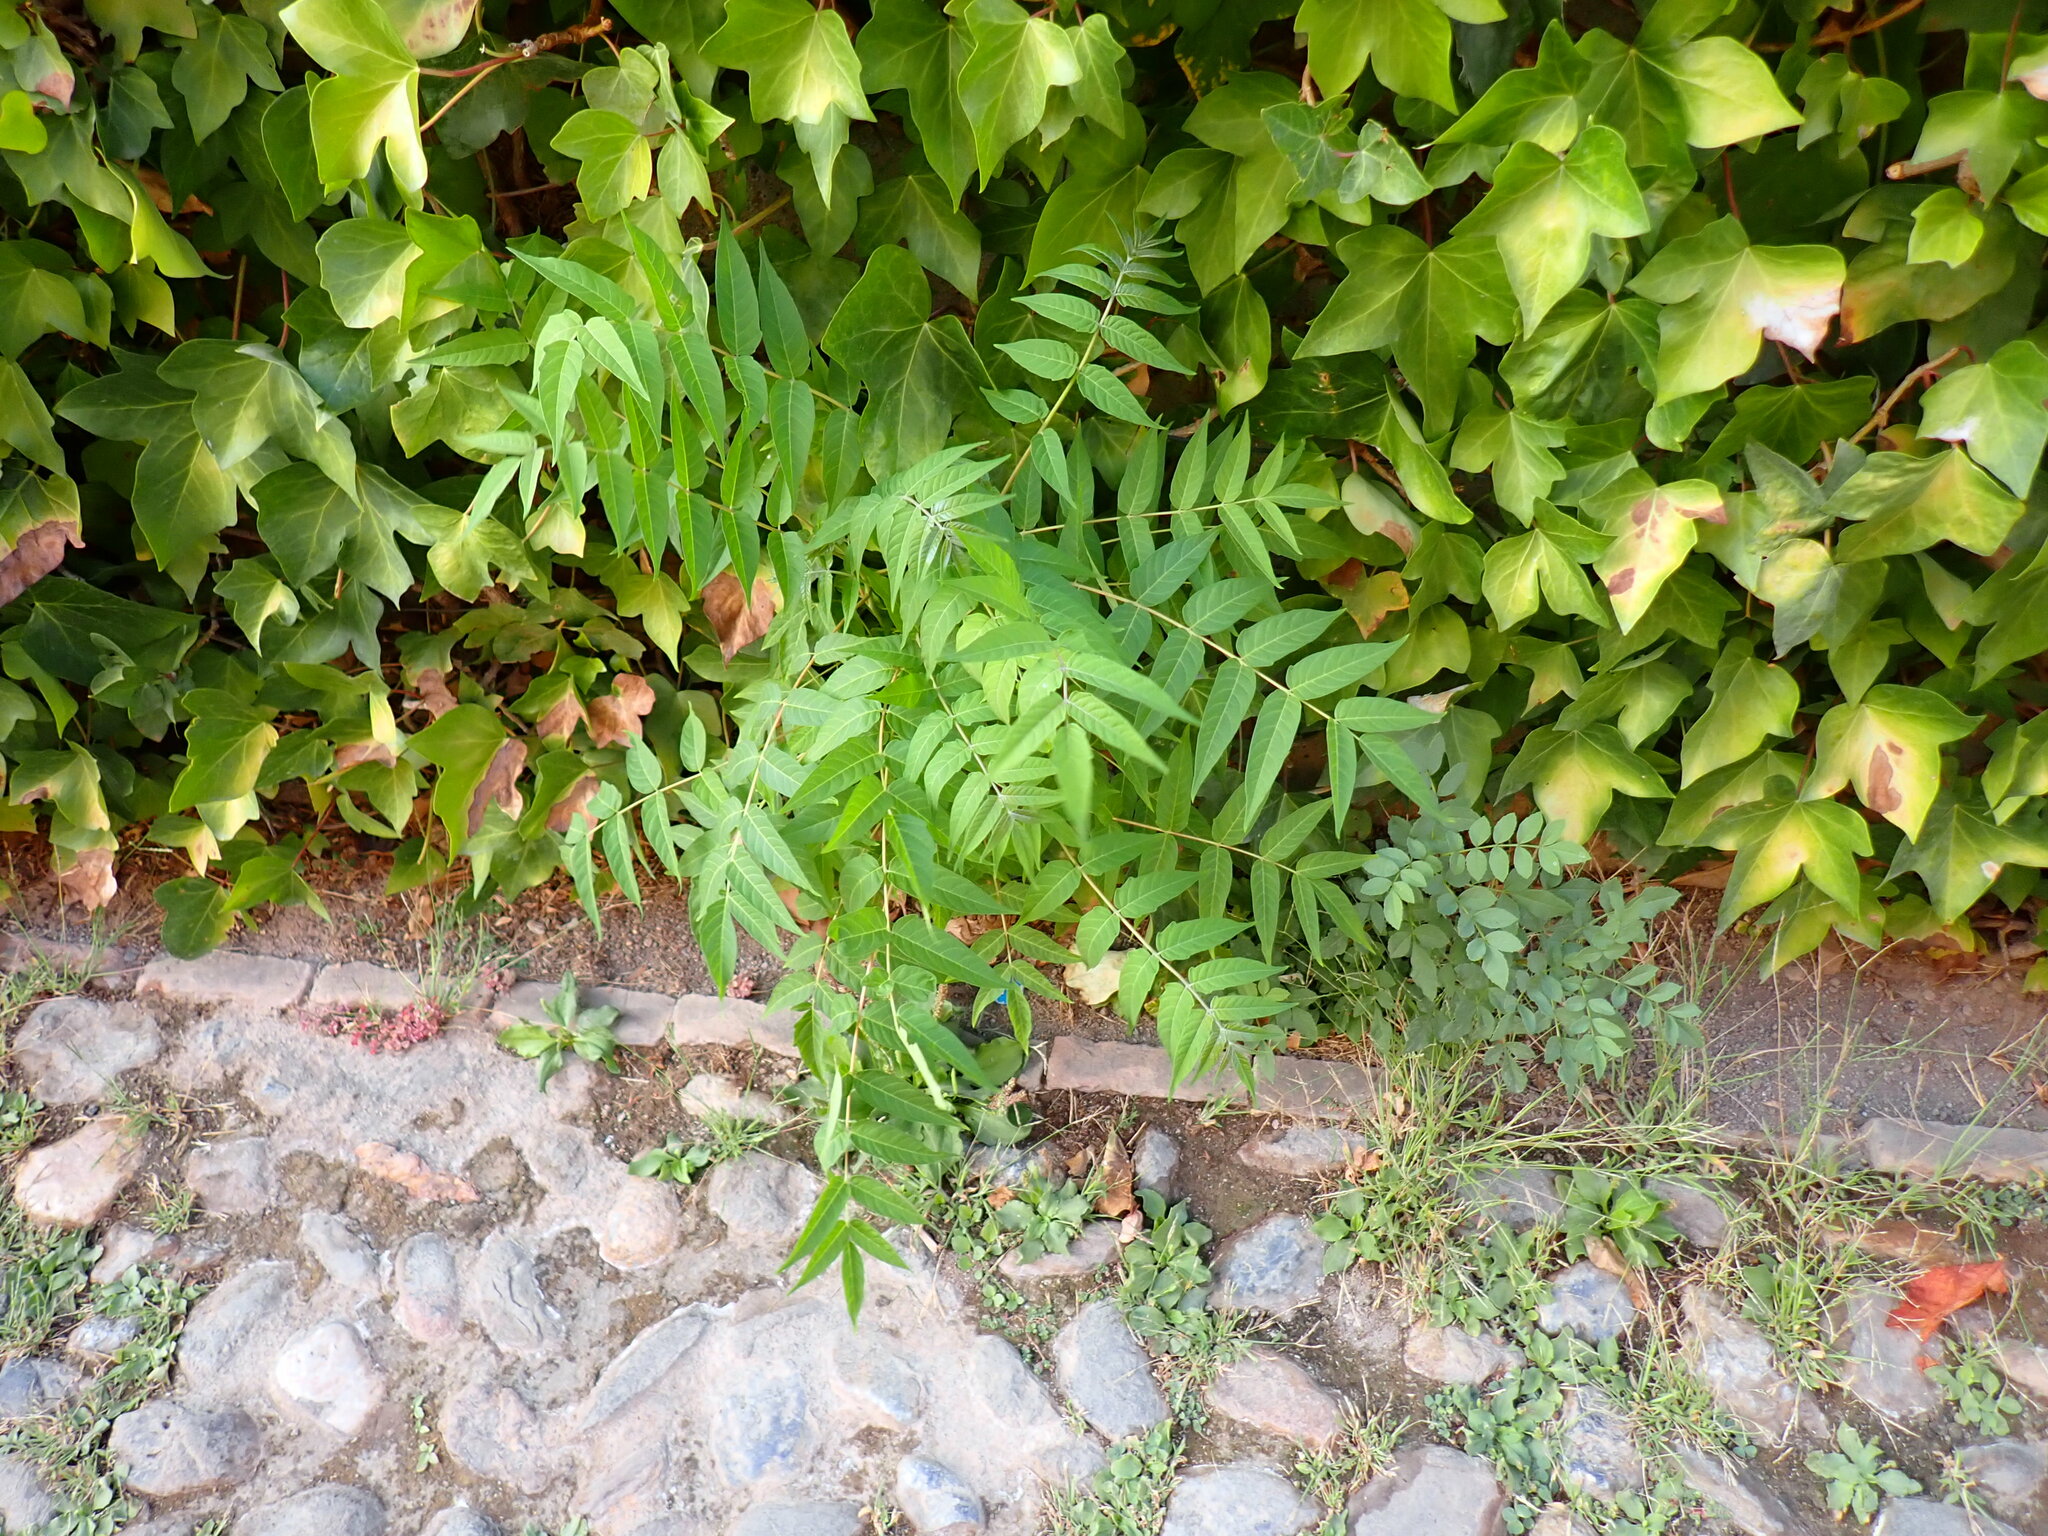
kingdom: Plantae
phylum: Tracheophyta
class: Magnoliopsida
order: Sapindales
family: Simaroubaceae
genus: Ailanthus
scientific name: Ailanthus altissima
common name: Tree-of-heaven
